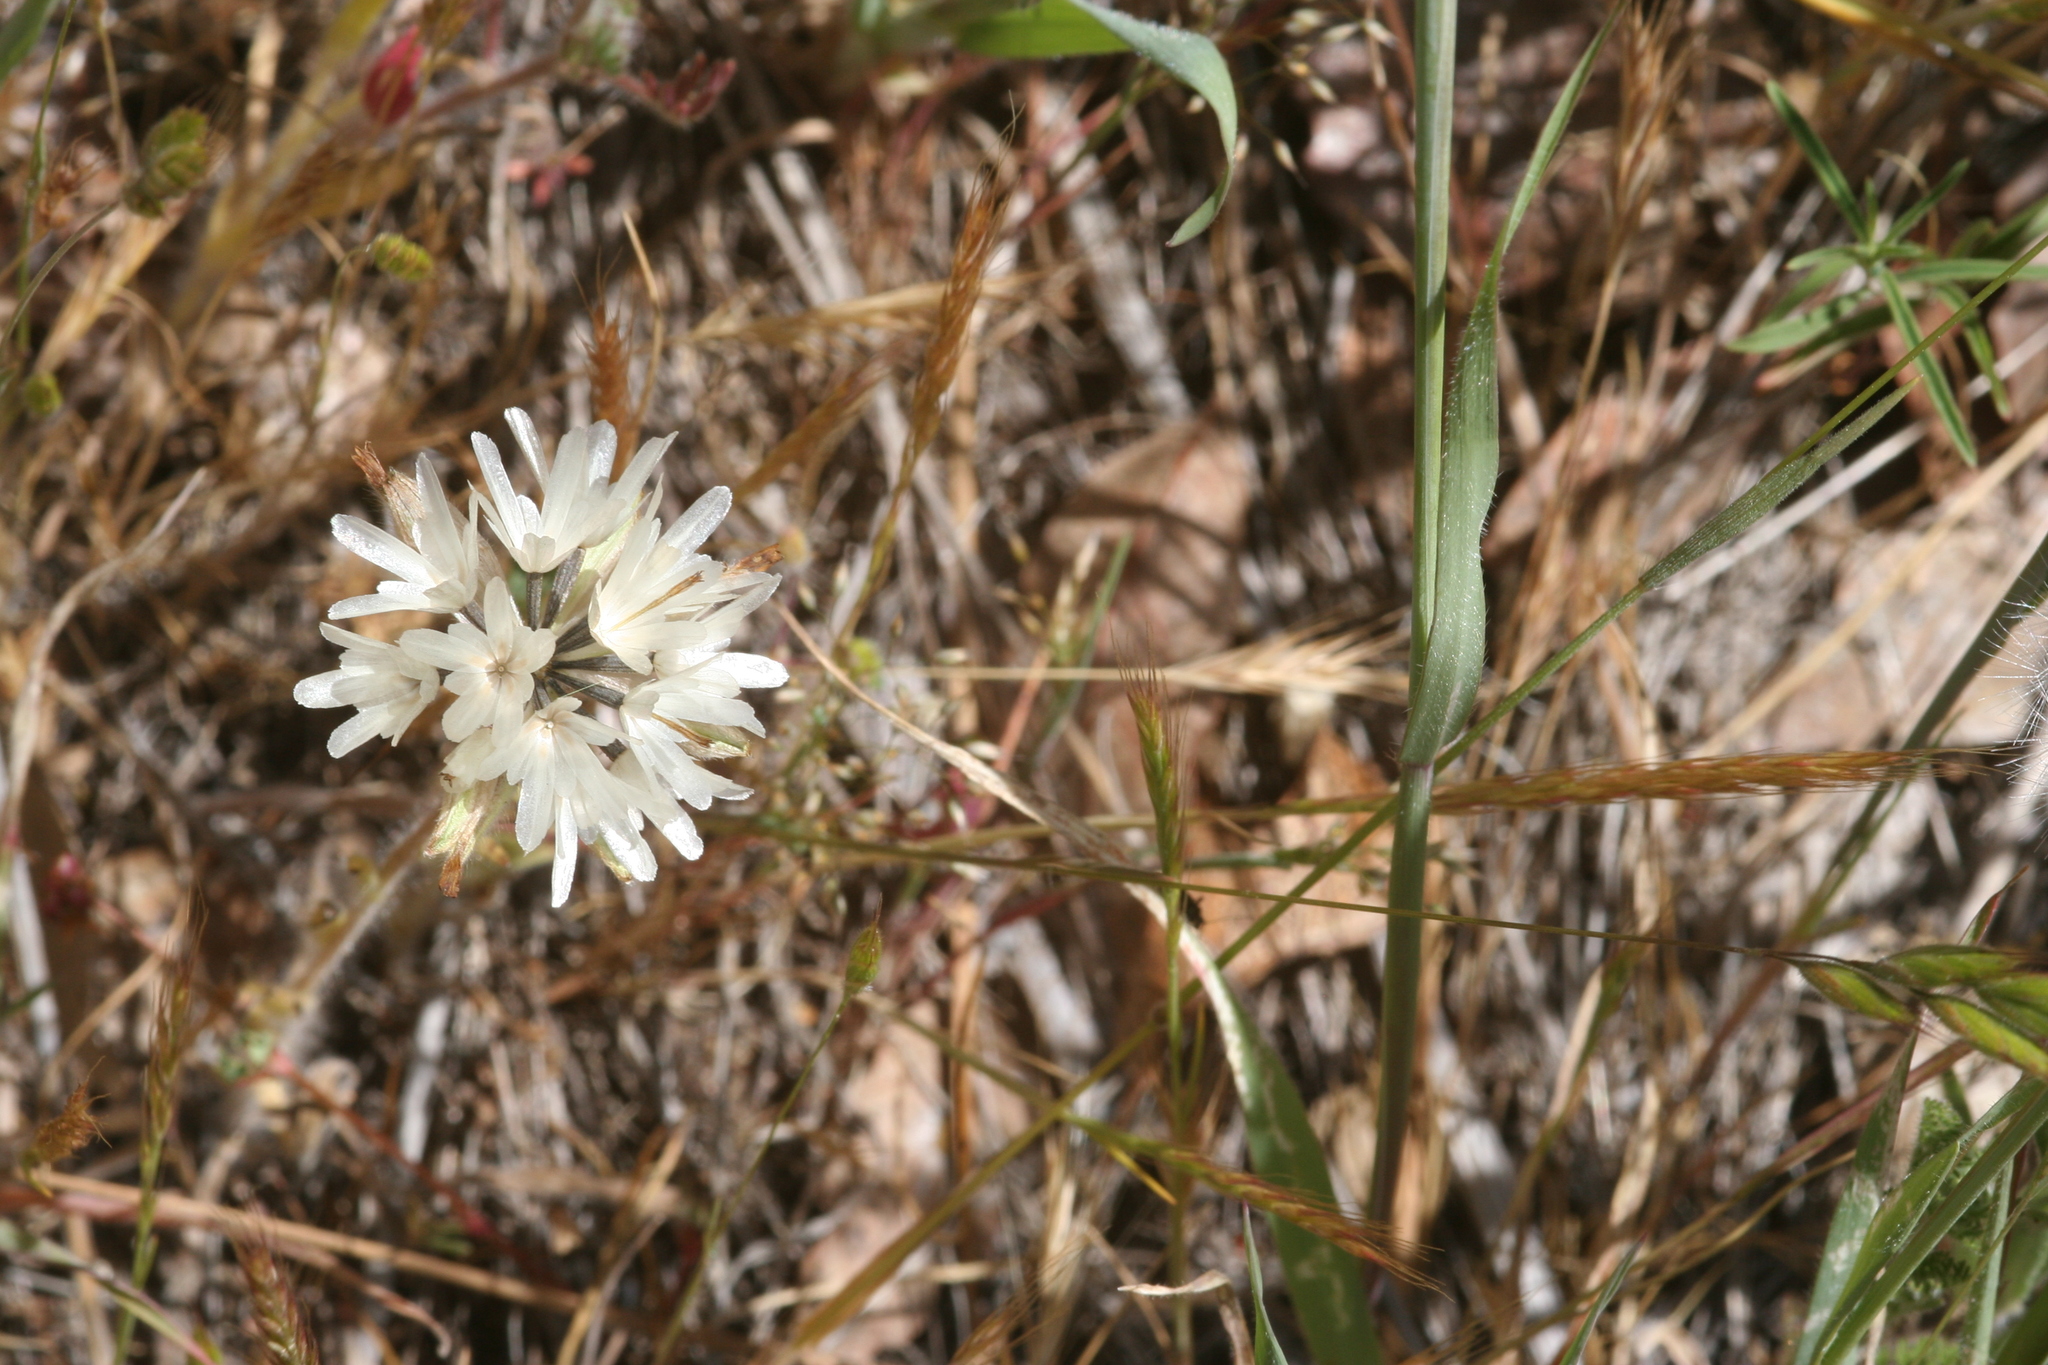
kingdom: Plantae
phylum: Tracheophyta
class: Magnoliopsida
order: Asterales
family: Asteraceae
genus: Achyrachaena
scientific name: Achyrachaena mollis
